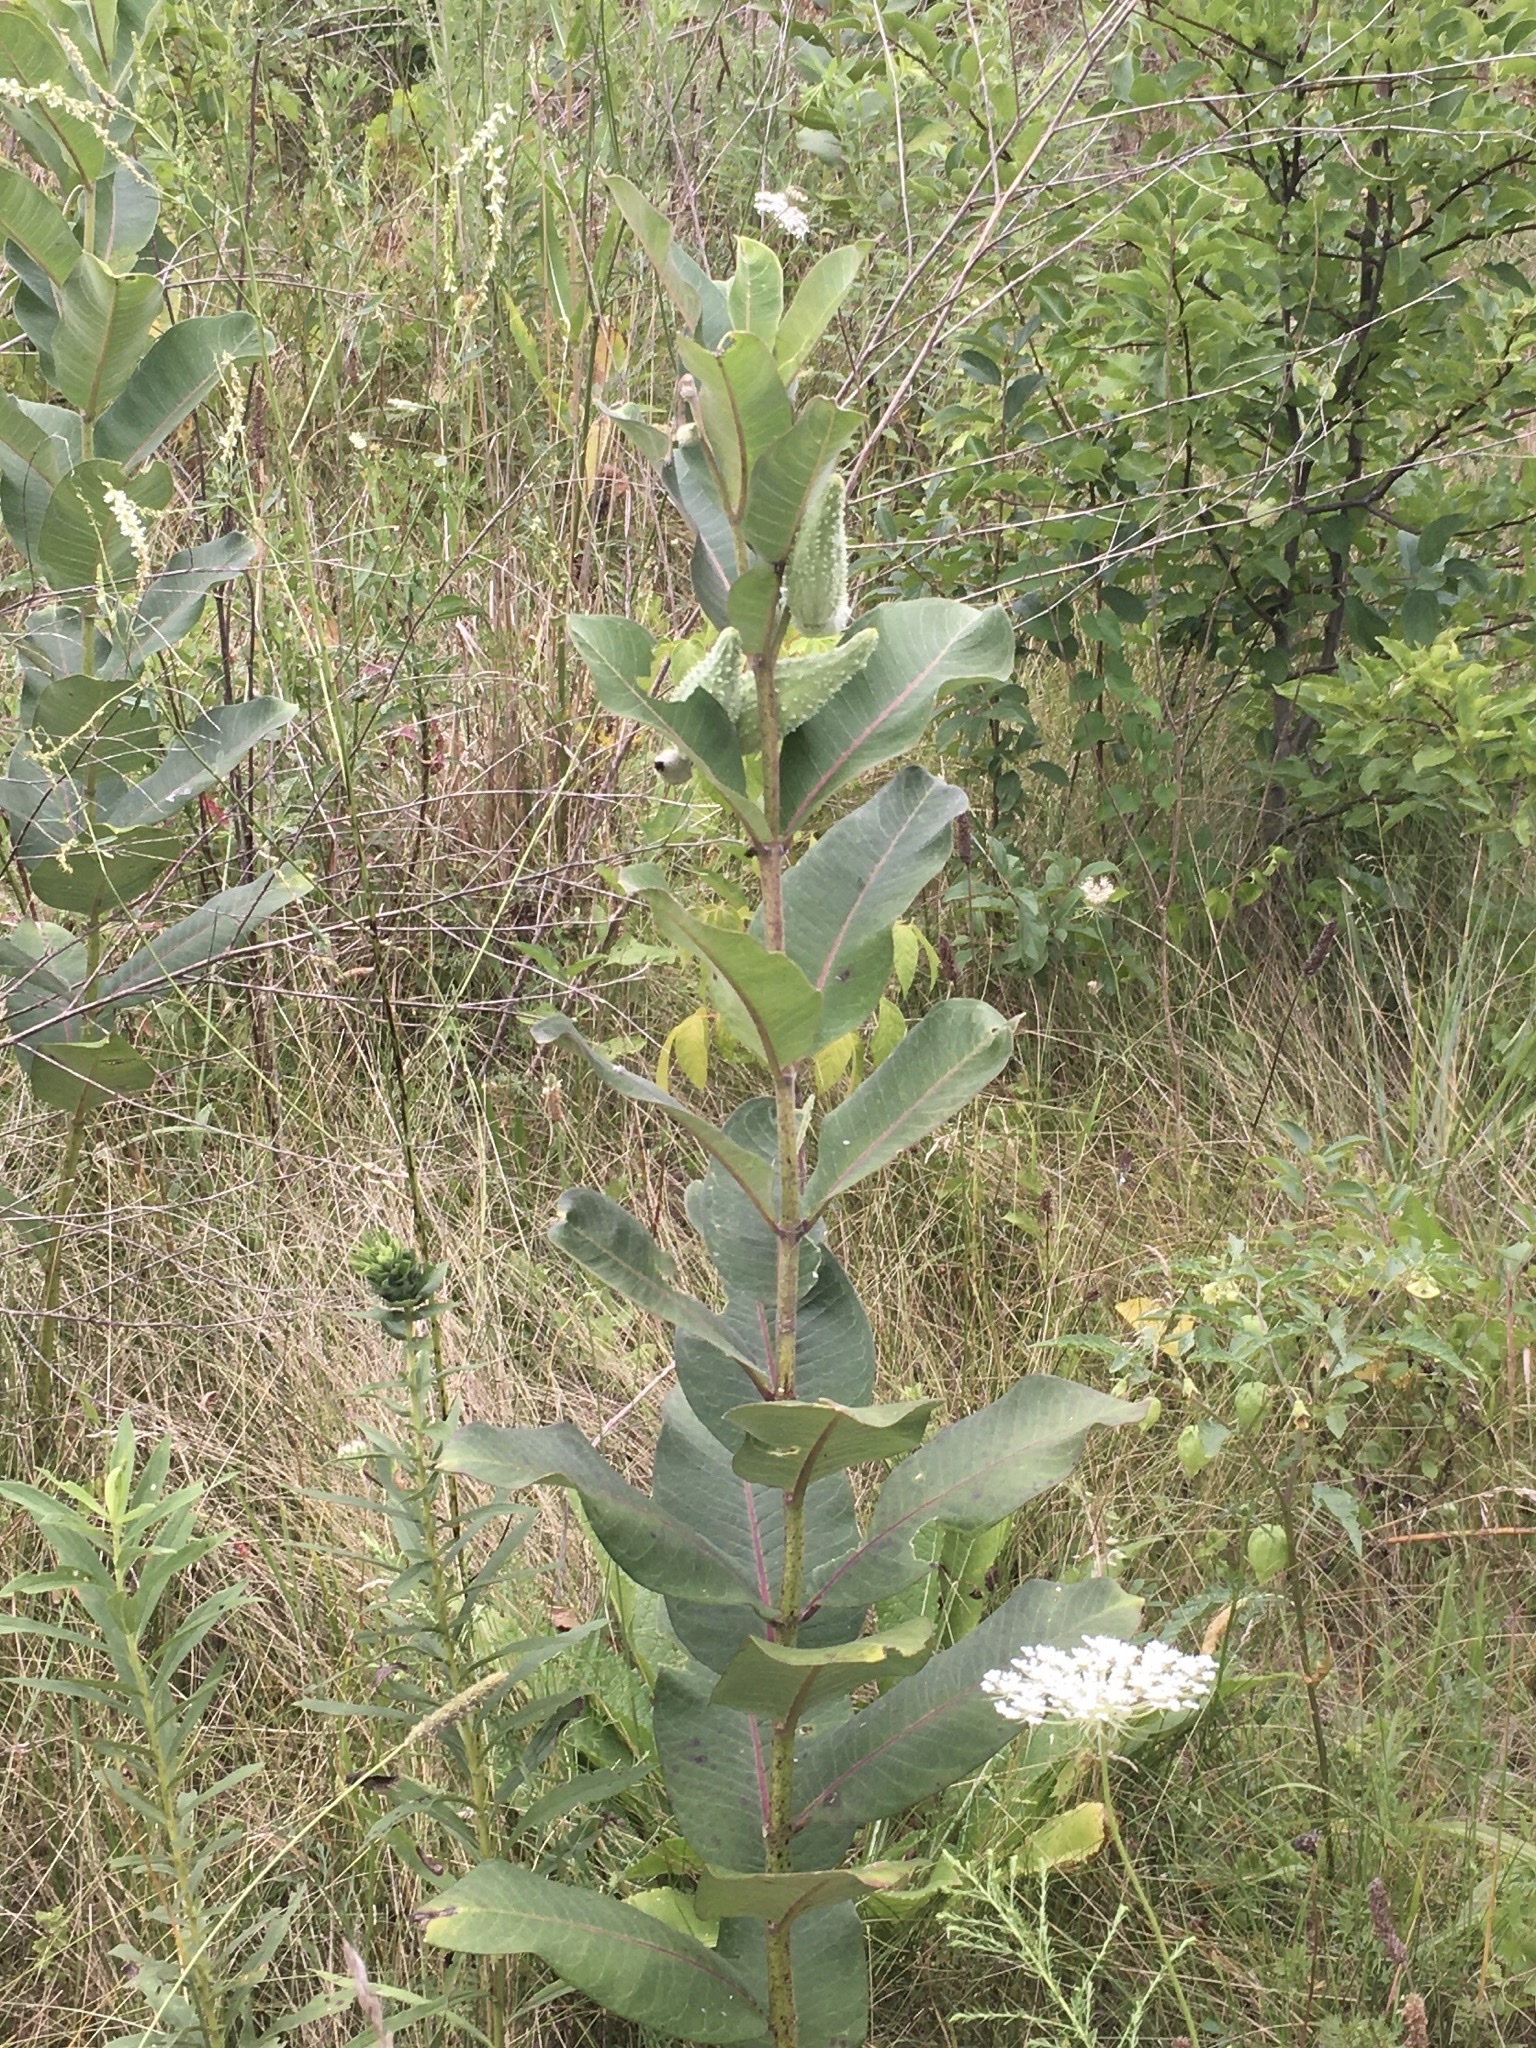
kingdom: Plantae
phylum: Tracheophyta
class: Magnoliopsida
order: Gentianales
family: Apocynaceae
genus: Asclepias
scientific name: Asclepias syriaca
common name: Common milkweed
